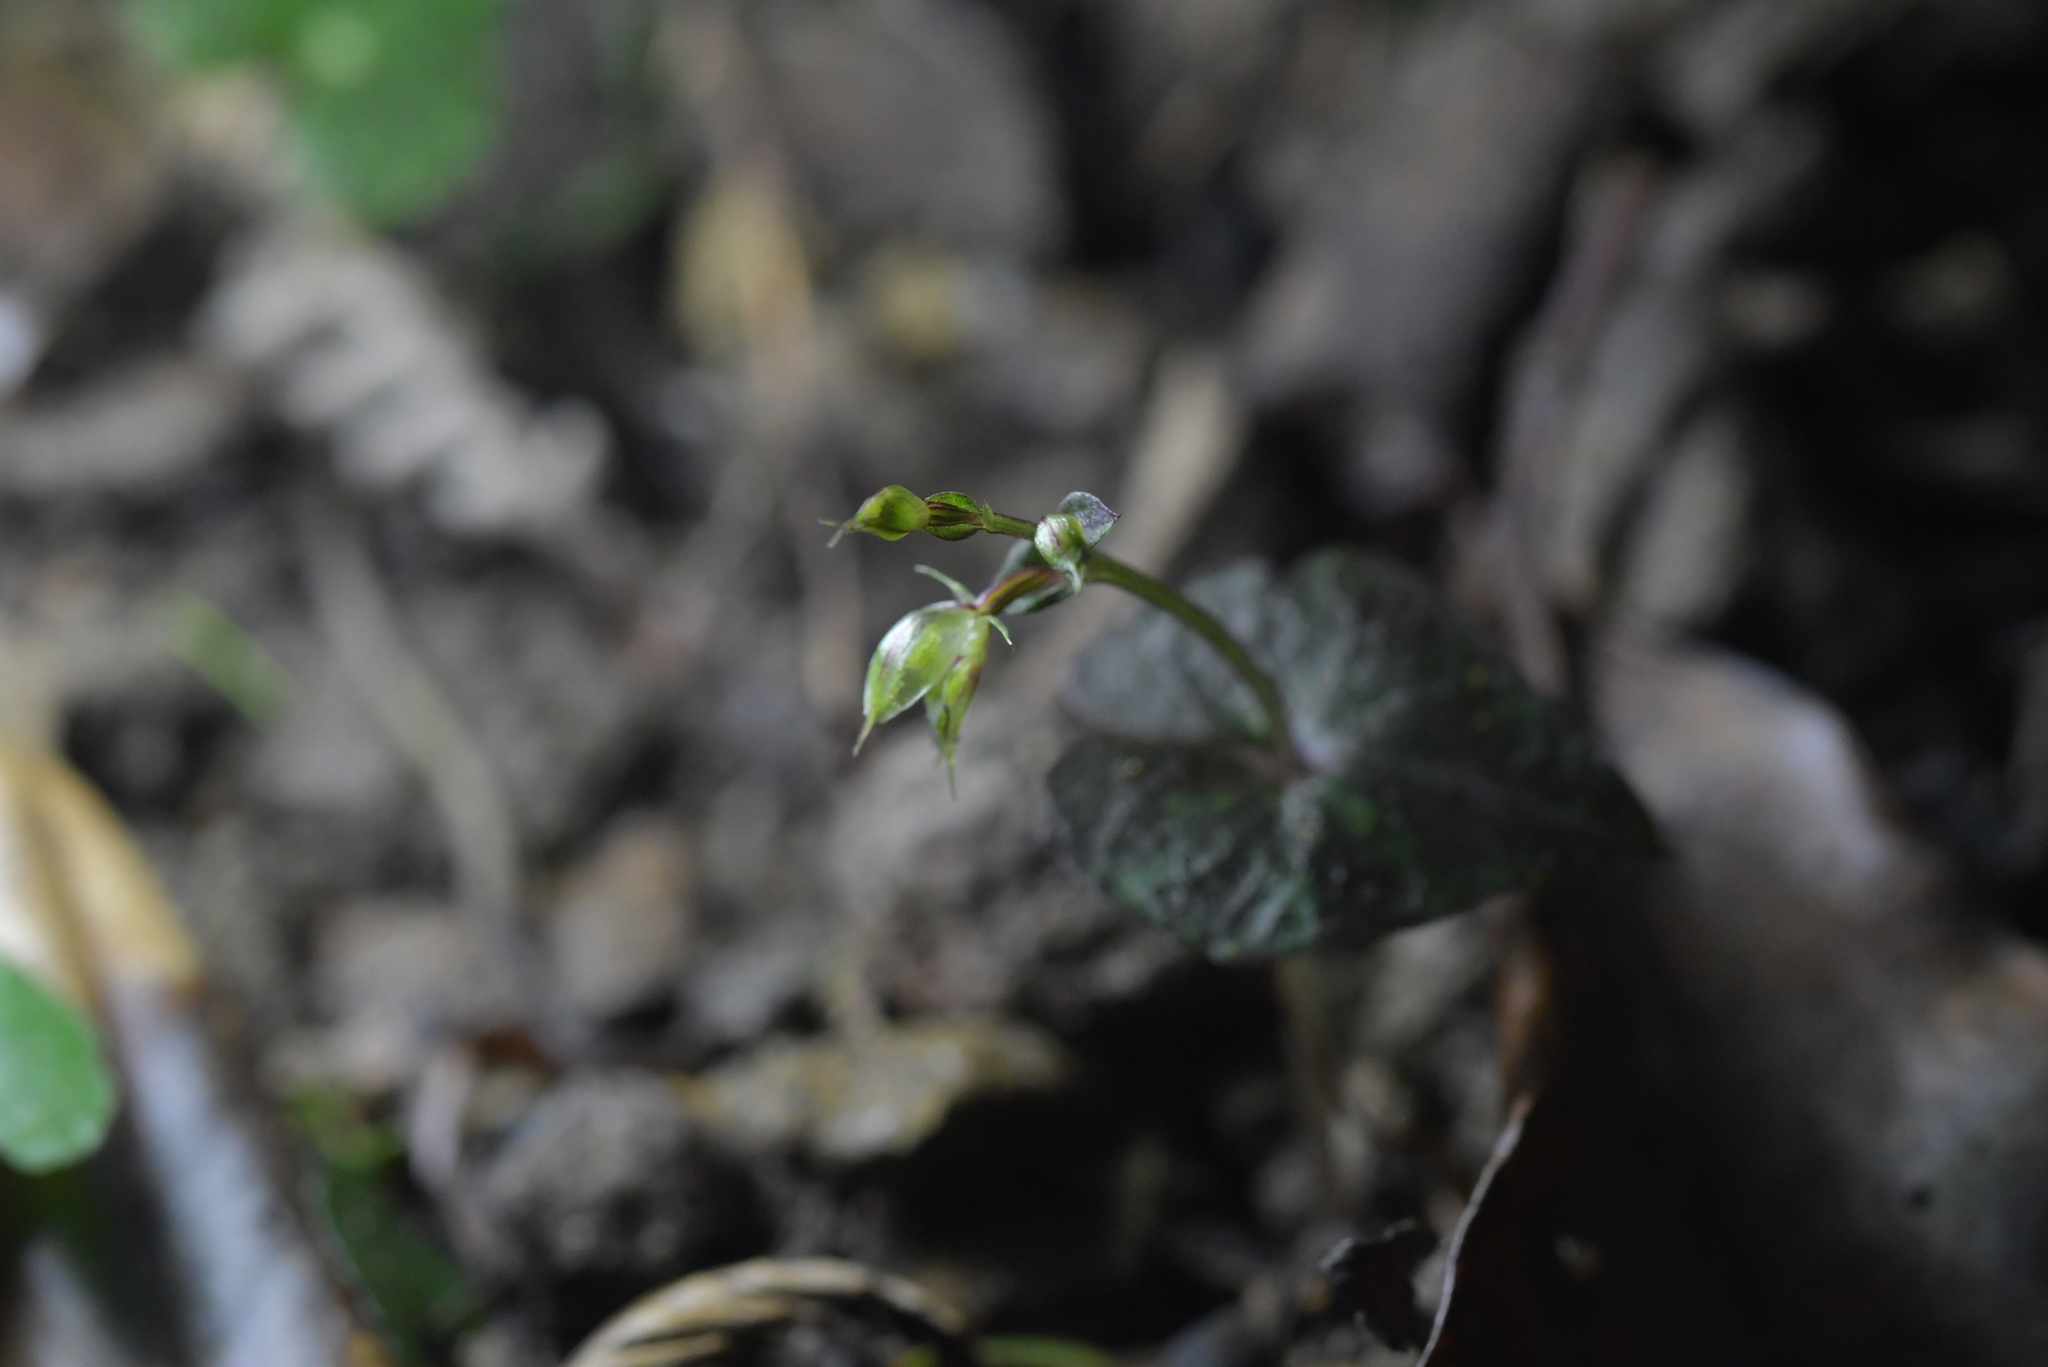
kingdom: Plantae
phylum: Tracheophyta
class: Liliopsida
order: Asparagales
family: Orchidaceae
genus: Acianthus
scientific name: Acianthus sinclairii
